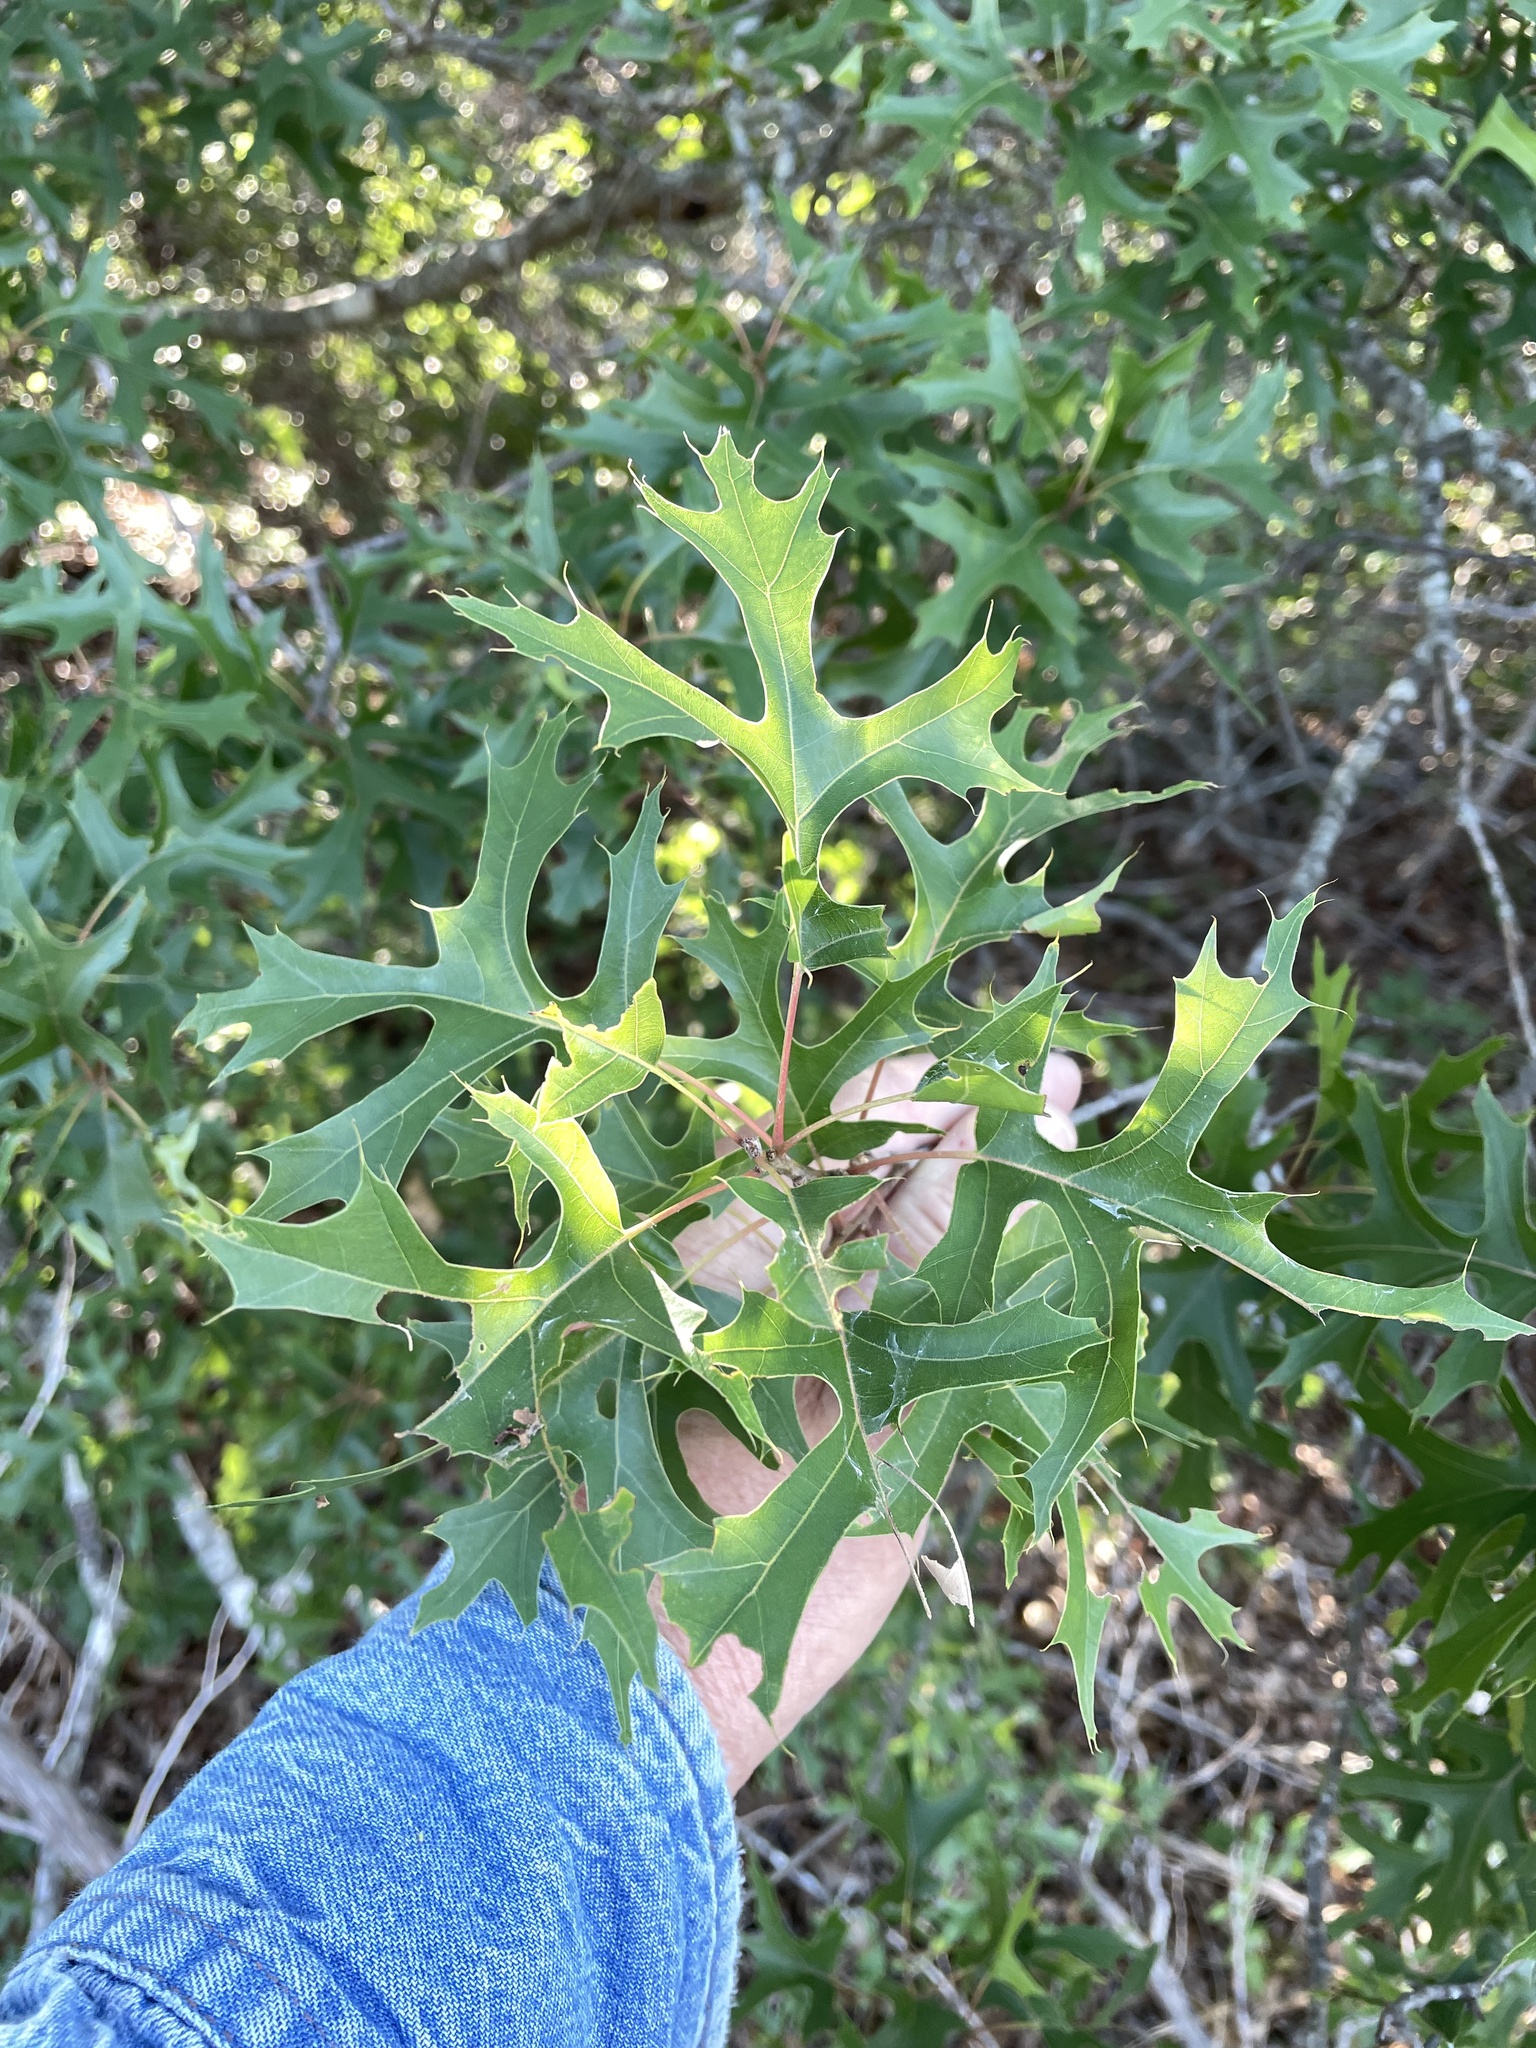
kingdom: Plantae
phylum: Tracheophyta
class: Magnoliopsida
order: Fagales
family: Fagaceae
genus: Quercus
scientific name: Quercus buckleyi
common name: Buckley oak
